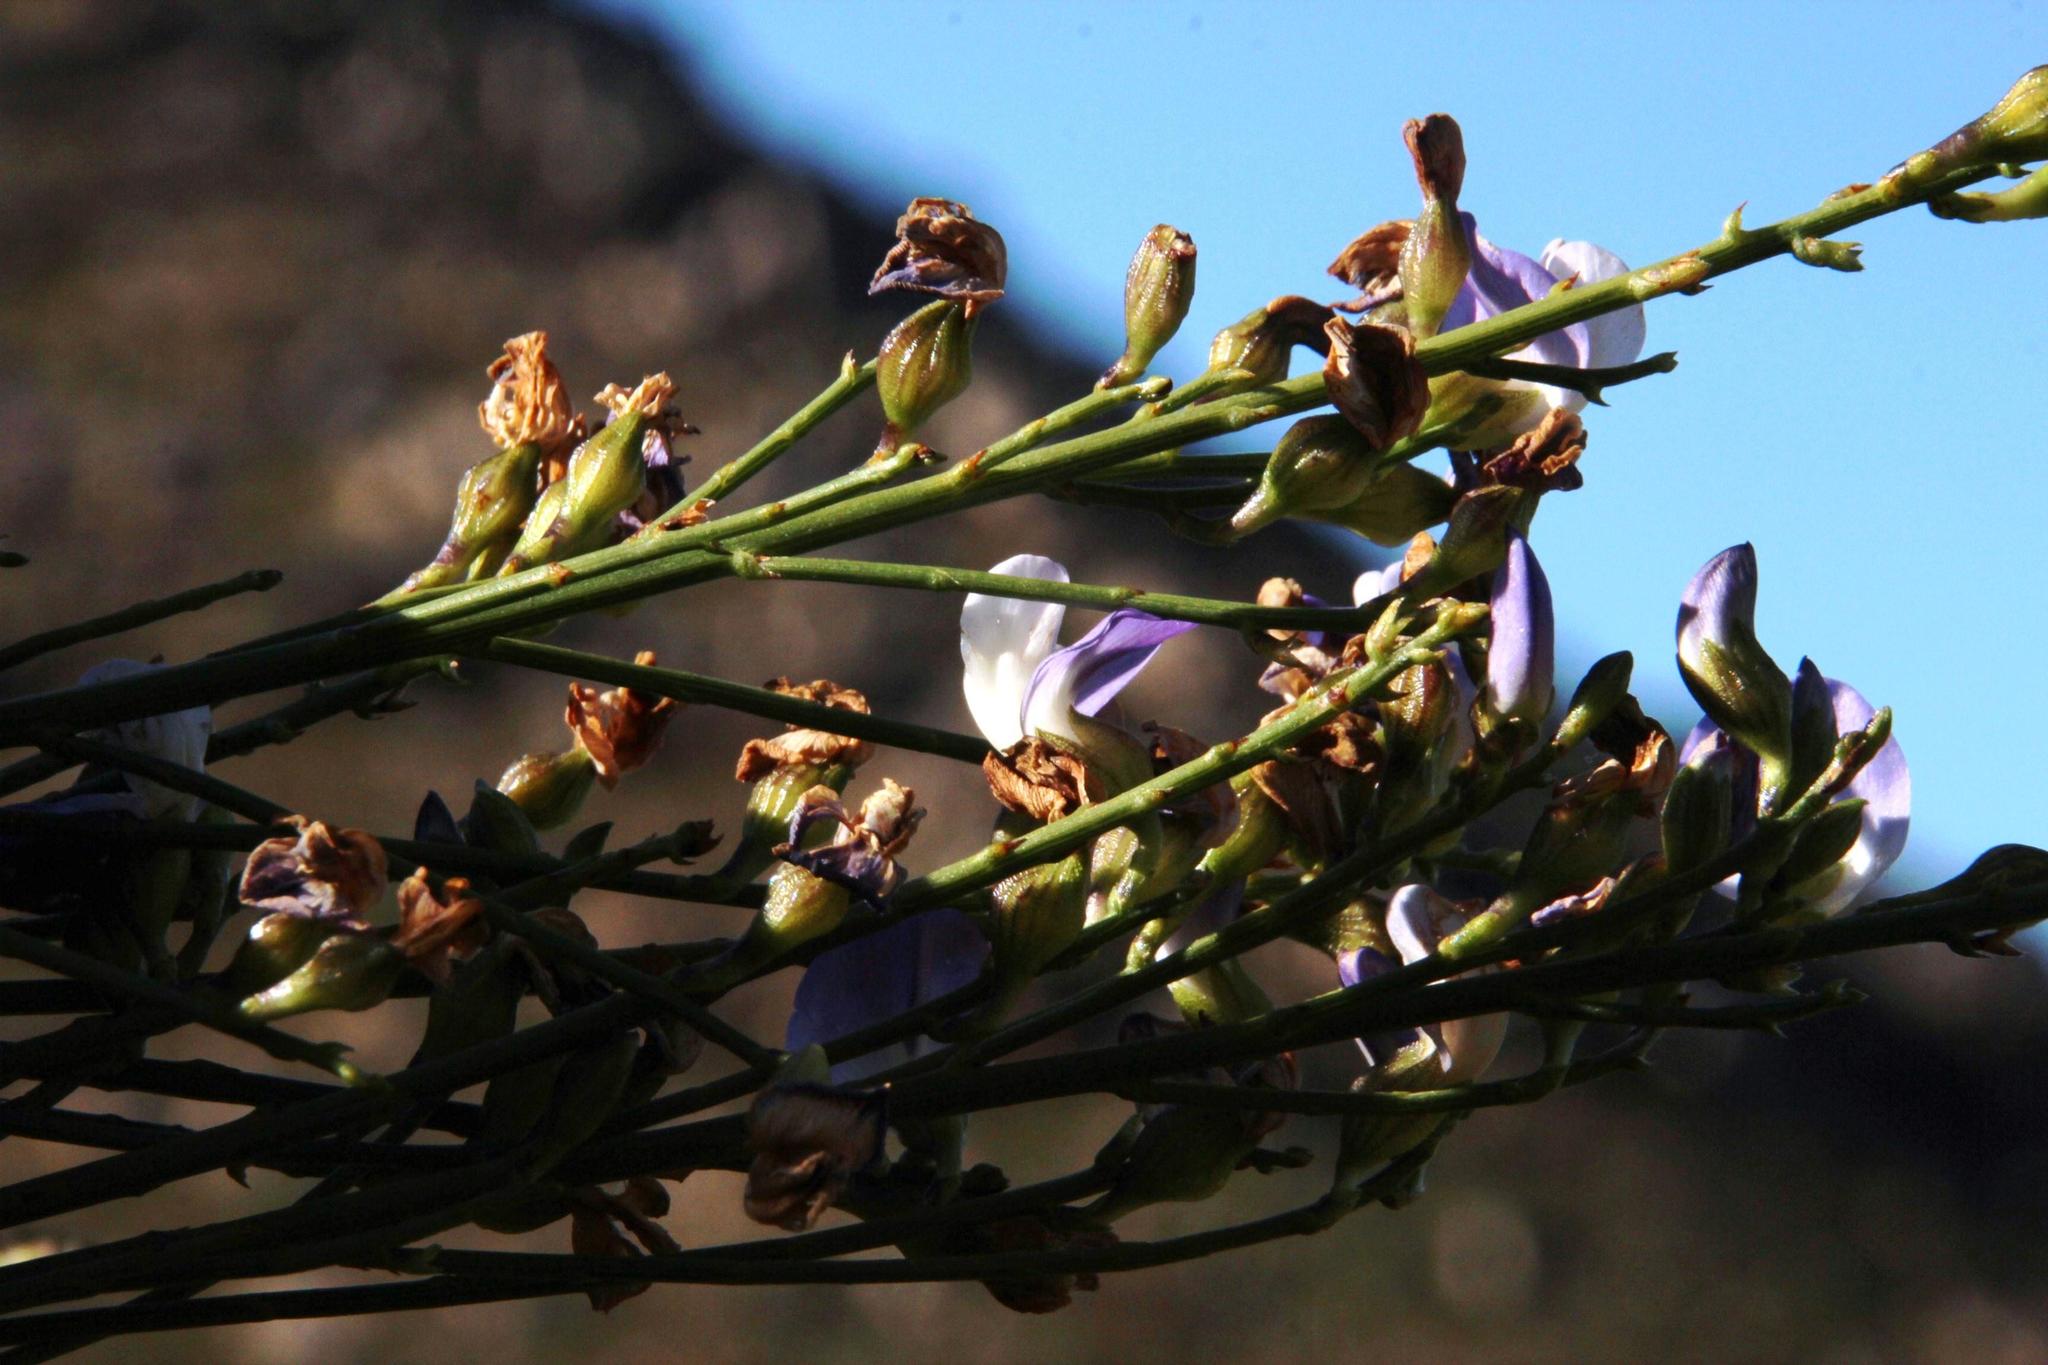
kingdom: Plantae
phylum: Tracheophyta
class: Magnoliopsida
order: Fabales
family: Fabaceae
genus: Psoralea
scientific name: Psoralea usitata
